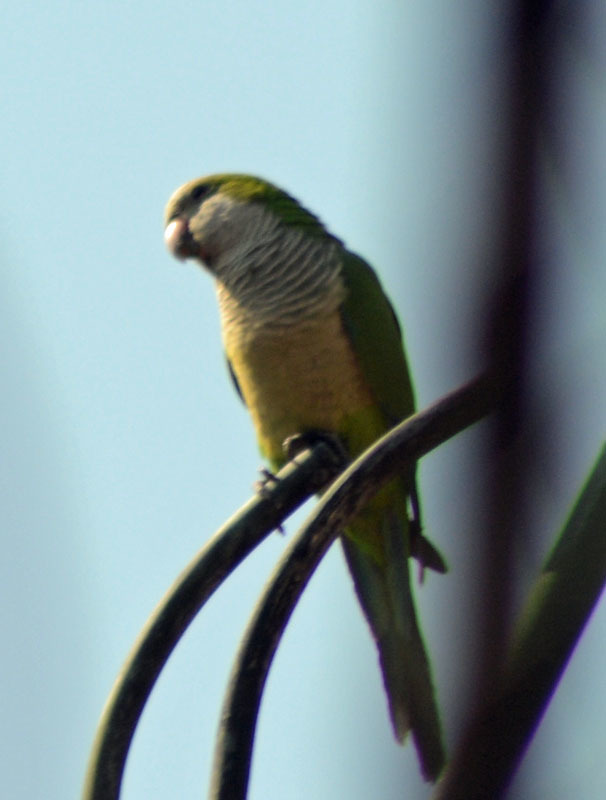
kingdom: Animalia
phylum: Chordata
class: Aves
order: Psittaciformes
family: Psittacidae
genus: Myiopsitta
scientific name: Myiopsitta monachus
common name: Monk parakeet
